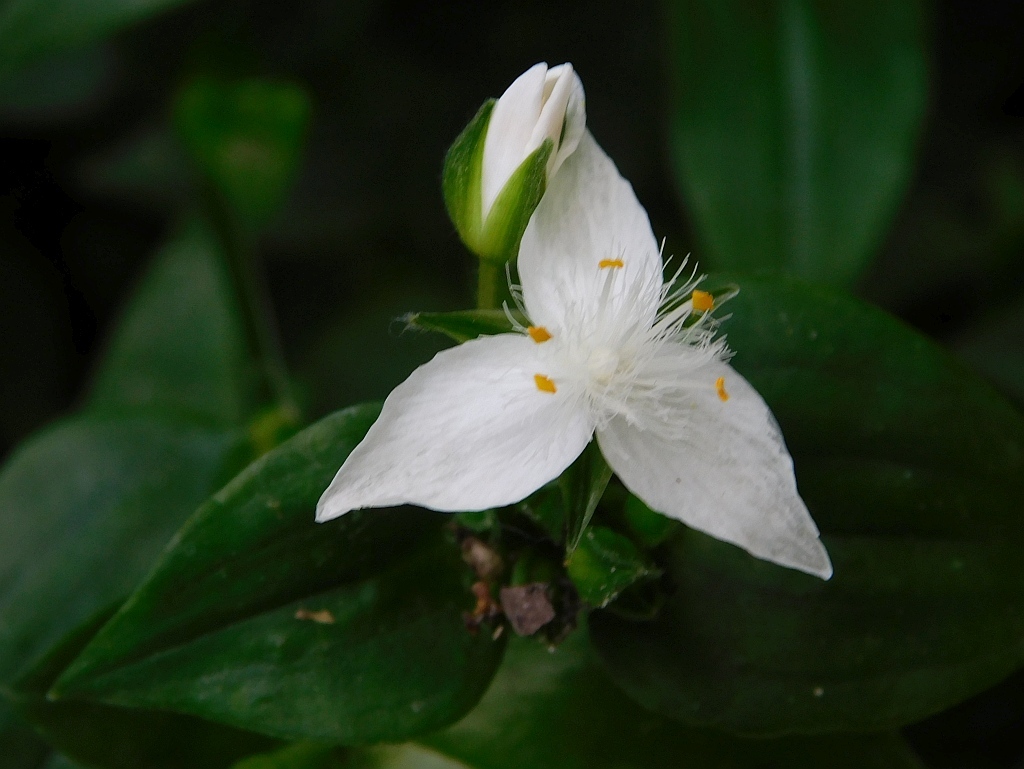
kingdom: Plantae
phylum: Tracheophyta
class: Liliopsida
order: Commelinales
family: Commelinaceae
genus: Tradescantia
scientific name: Tradescantia fluminensis
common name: Wandering-jew
